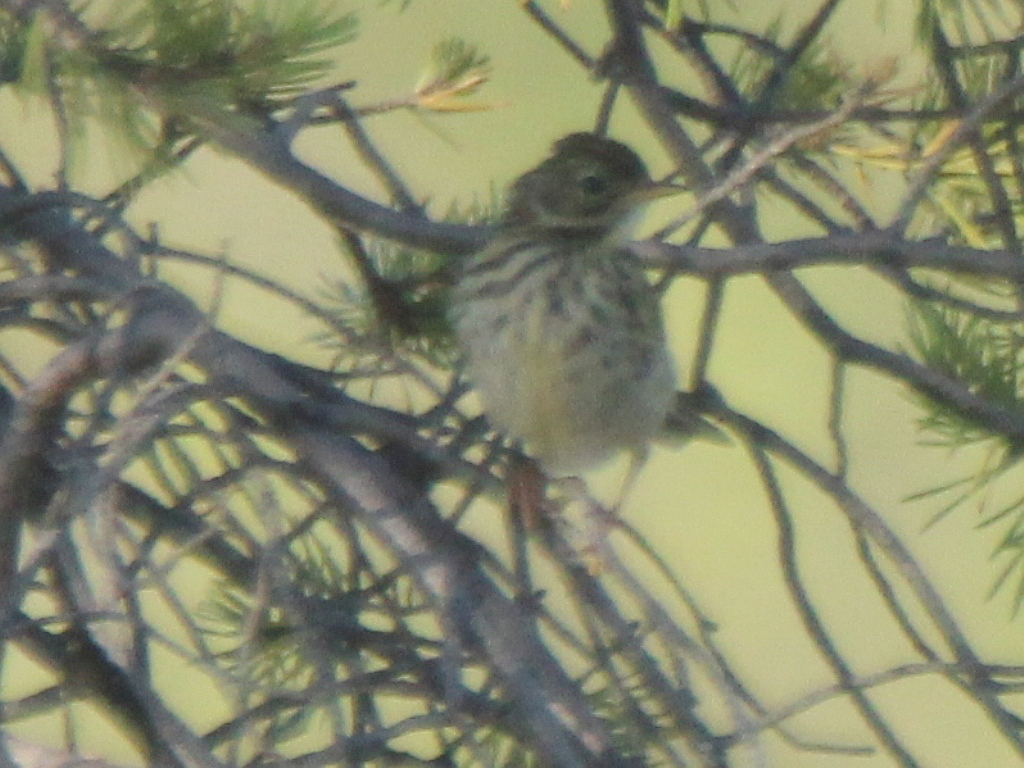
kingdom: Animalia
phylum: Chordata
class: Aves
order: Passeriformes
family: Motacillidae
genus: Anthus
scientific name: Anthus pratensis
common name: Meadow pipit
